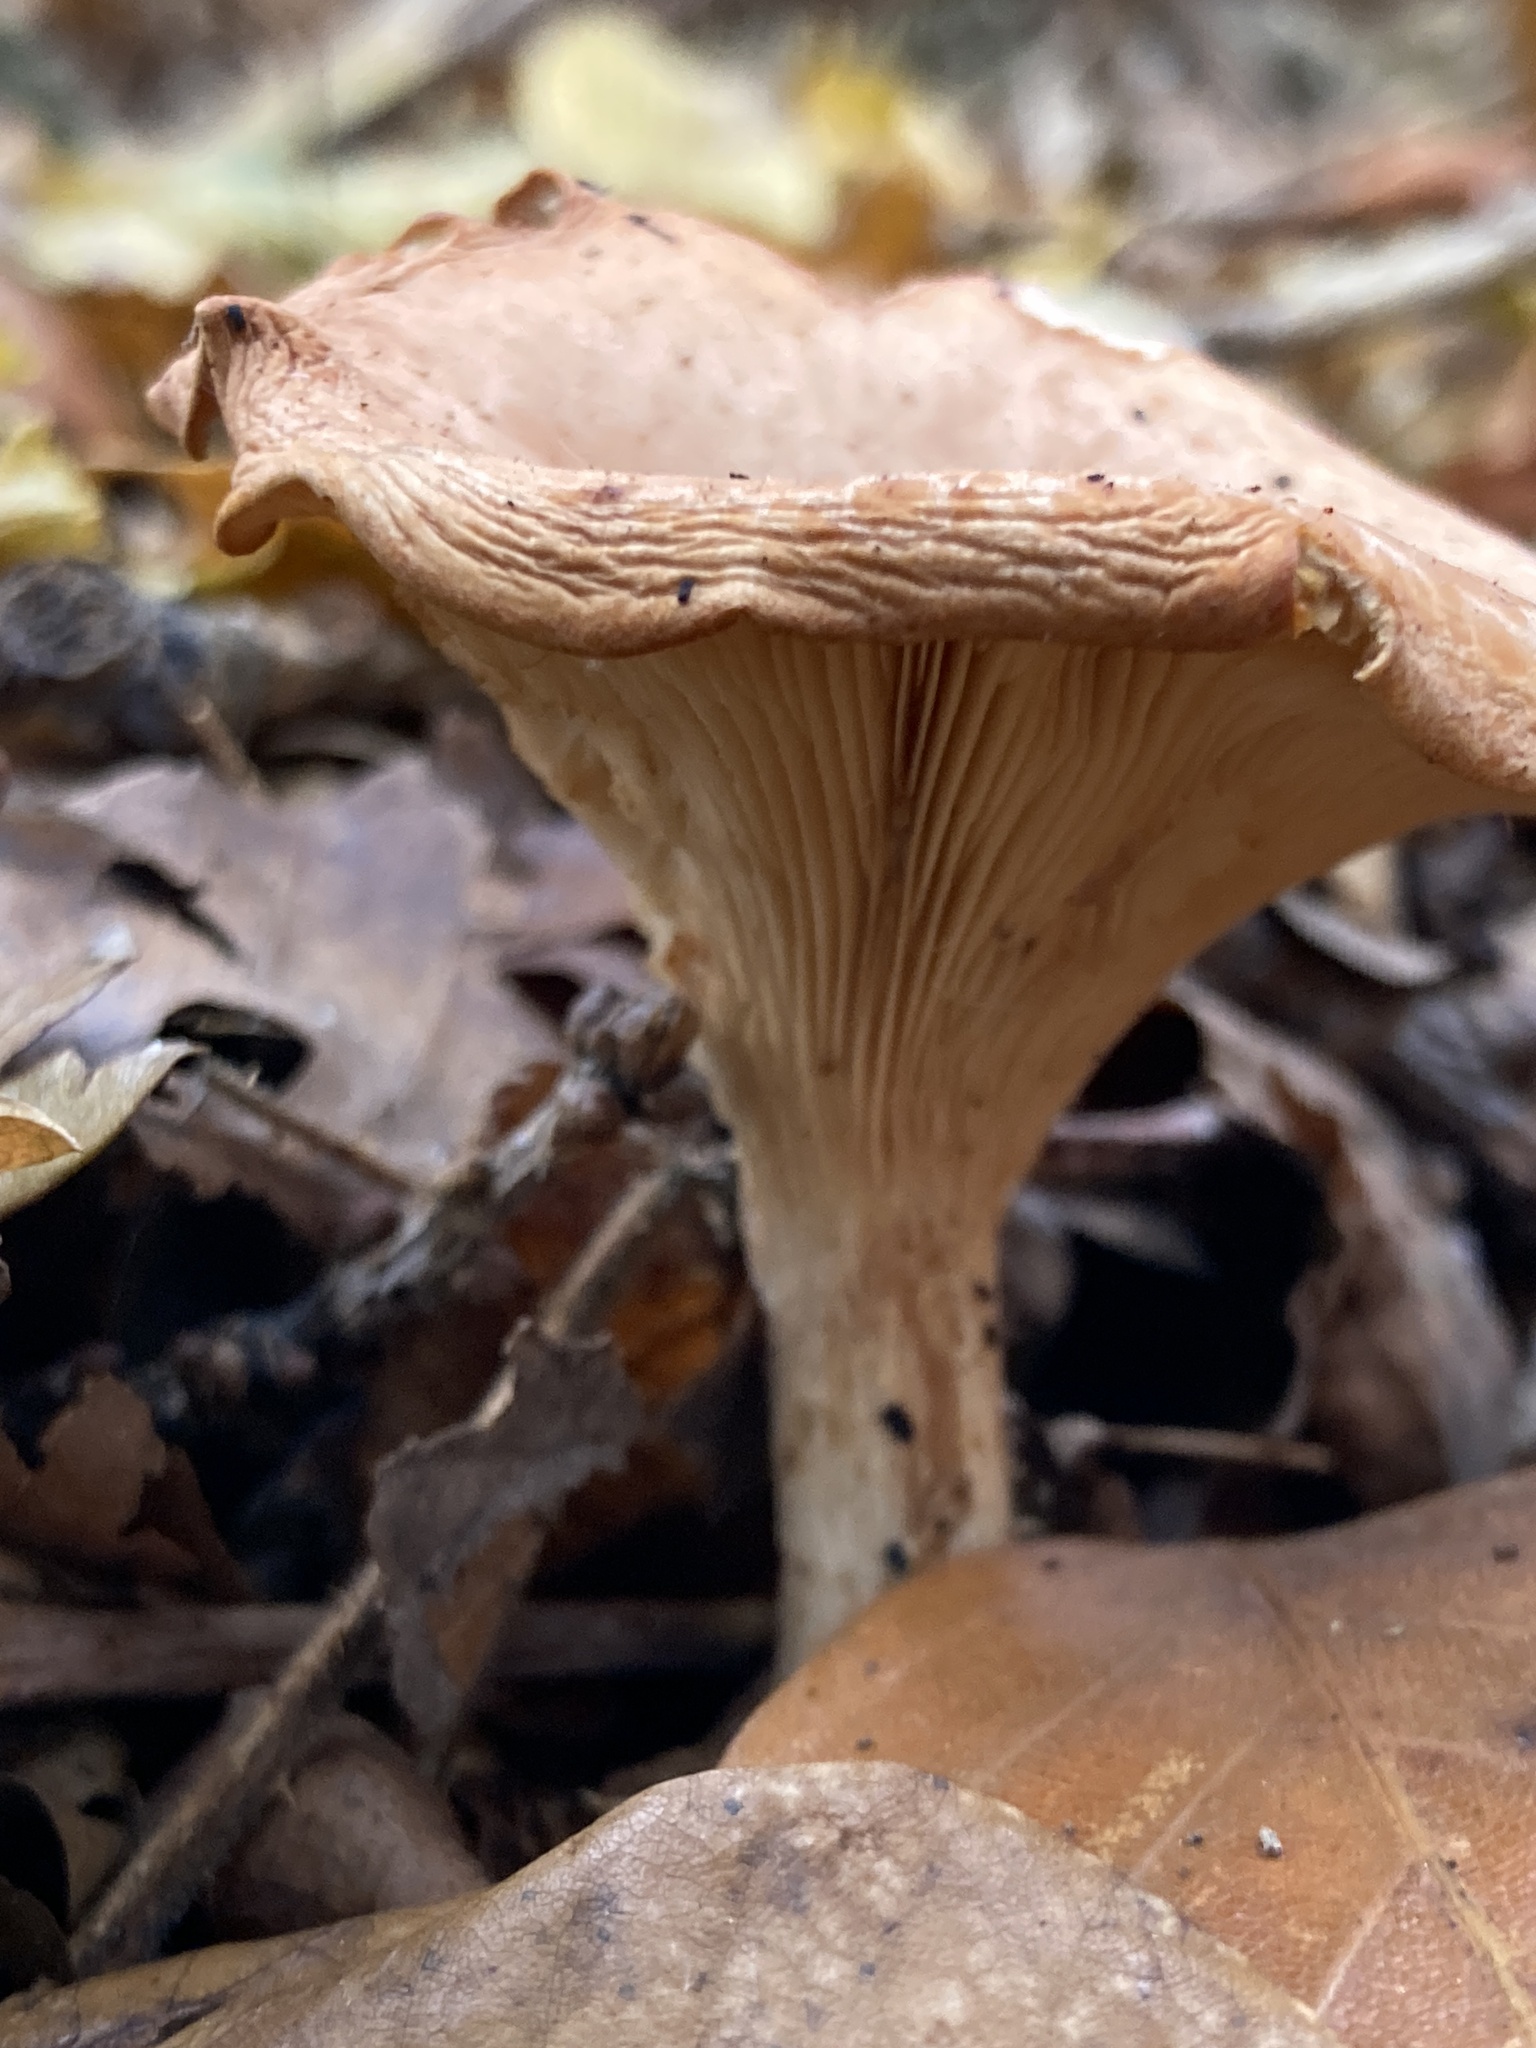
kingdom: Fungi
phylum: Basidiomycota
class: Agaricomycetes
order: Agaricales
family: Tricholomataceae
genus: Paralepista
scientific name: Paralepista flaccida
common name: Tawny funnel cap
